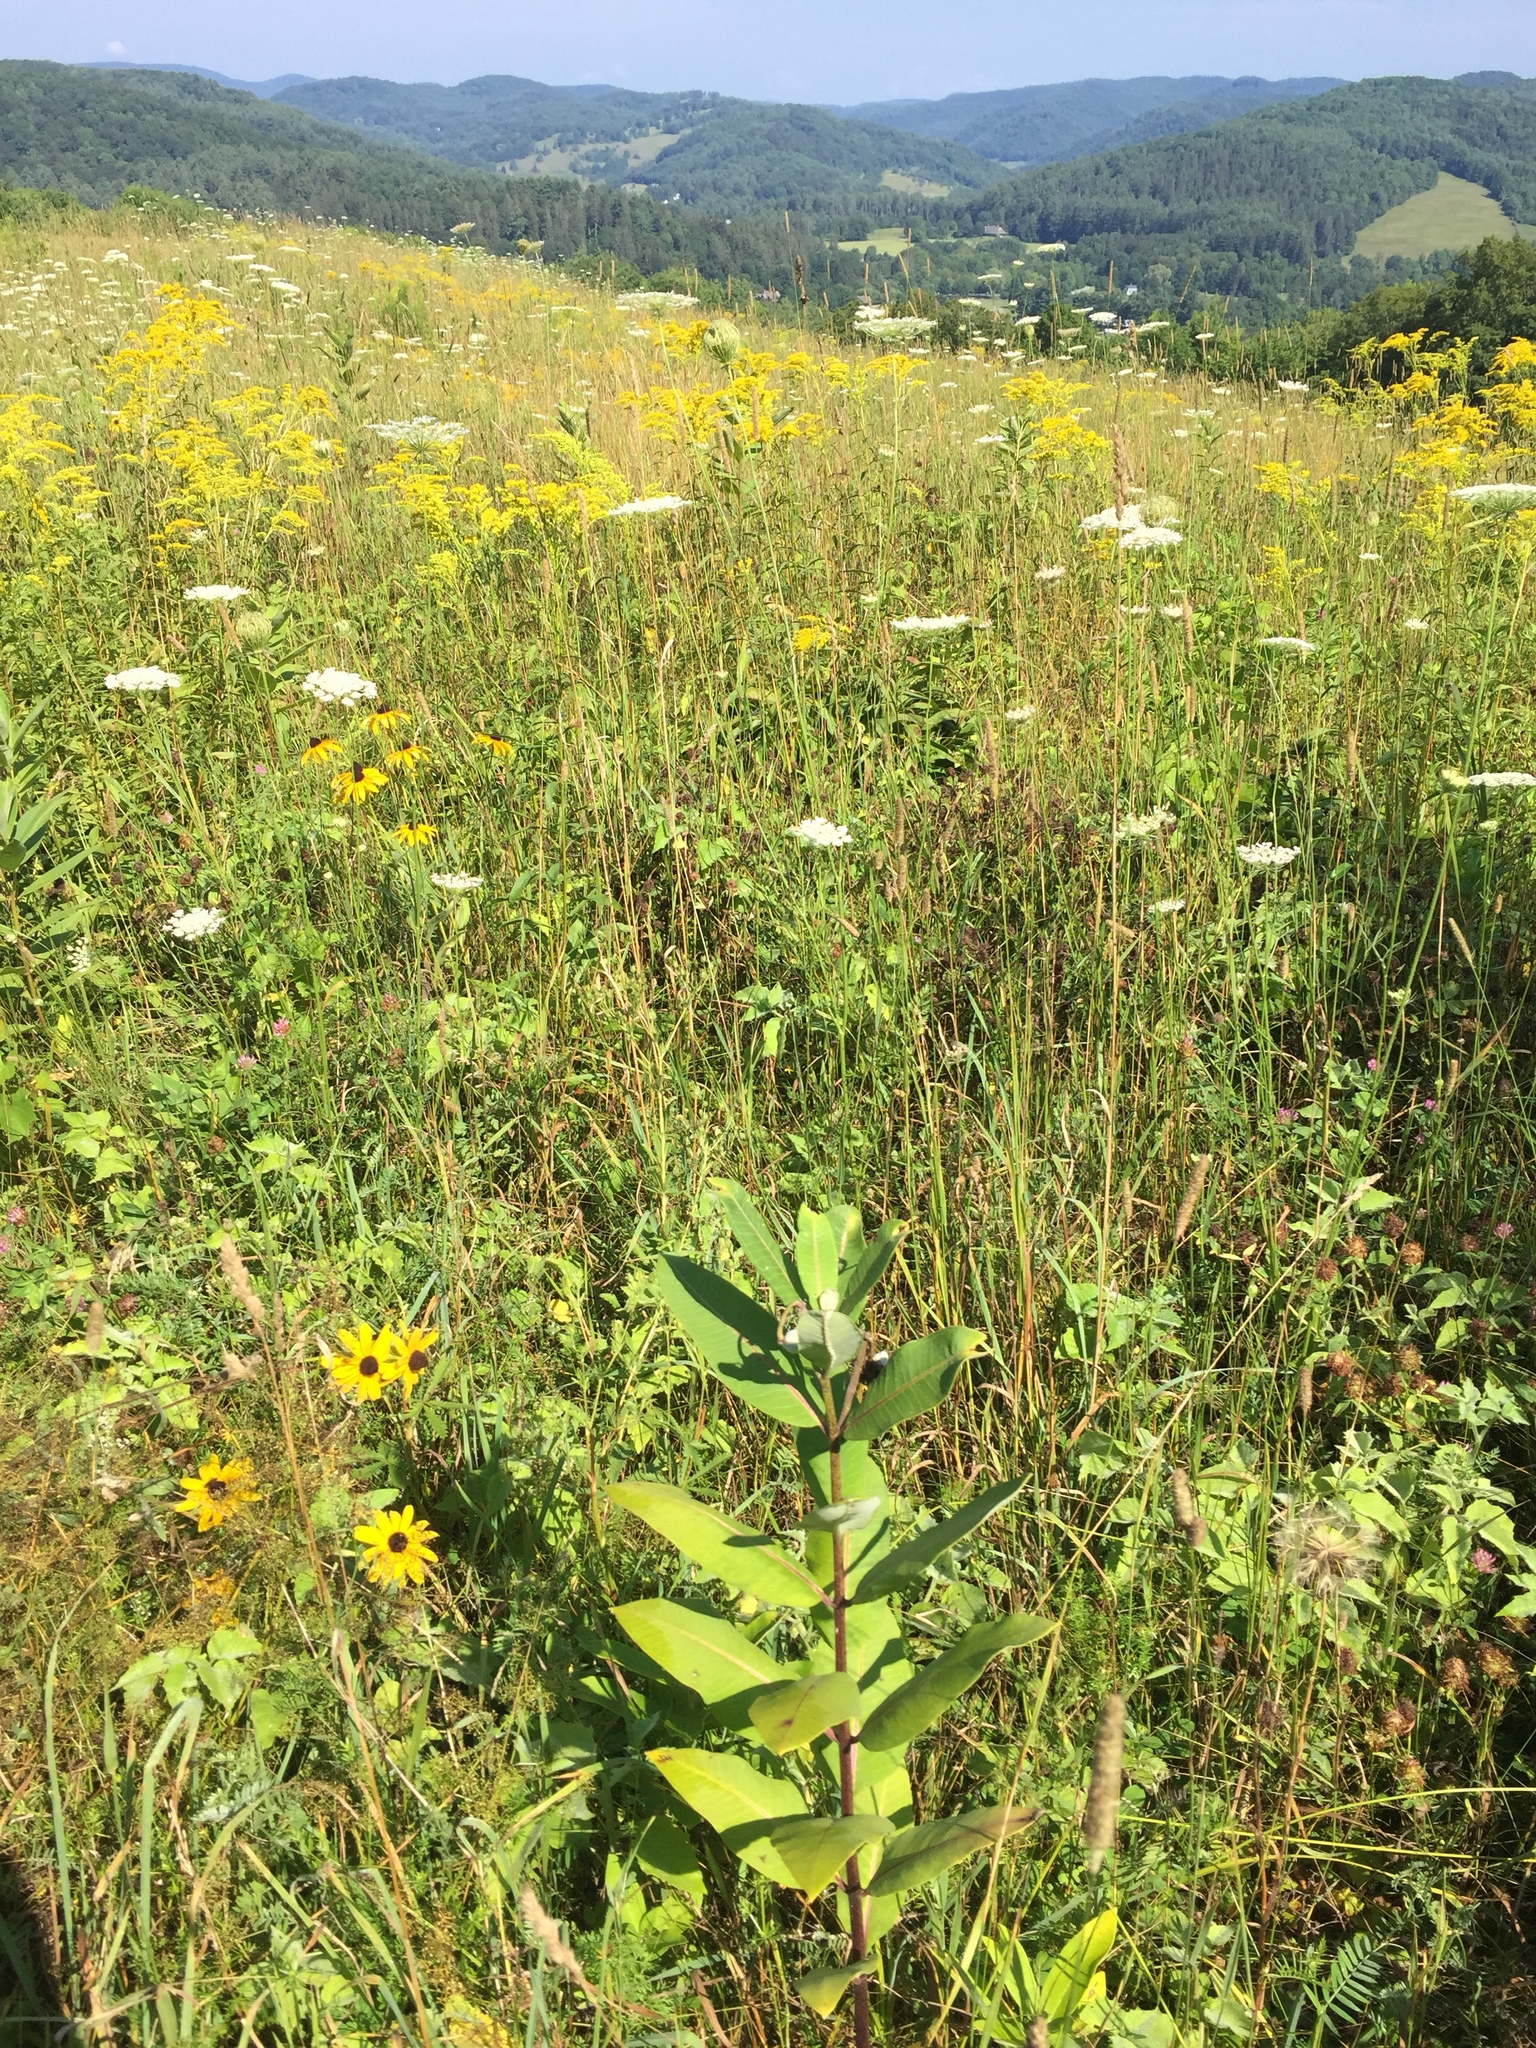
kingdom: Plantae
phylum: Tracheophyta
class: Magnoliopsida
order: Gentianales
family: Apocynaceae
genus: Asclepias
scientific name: Asclepias syriaca
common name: Common milkweed
